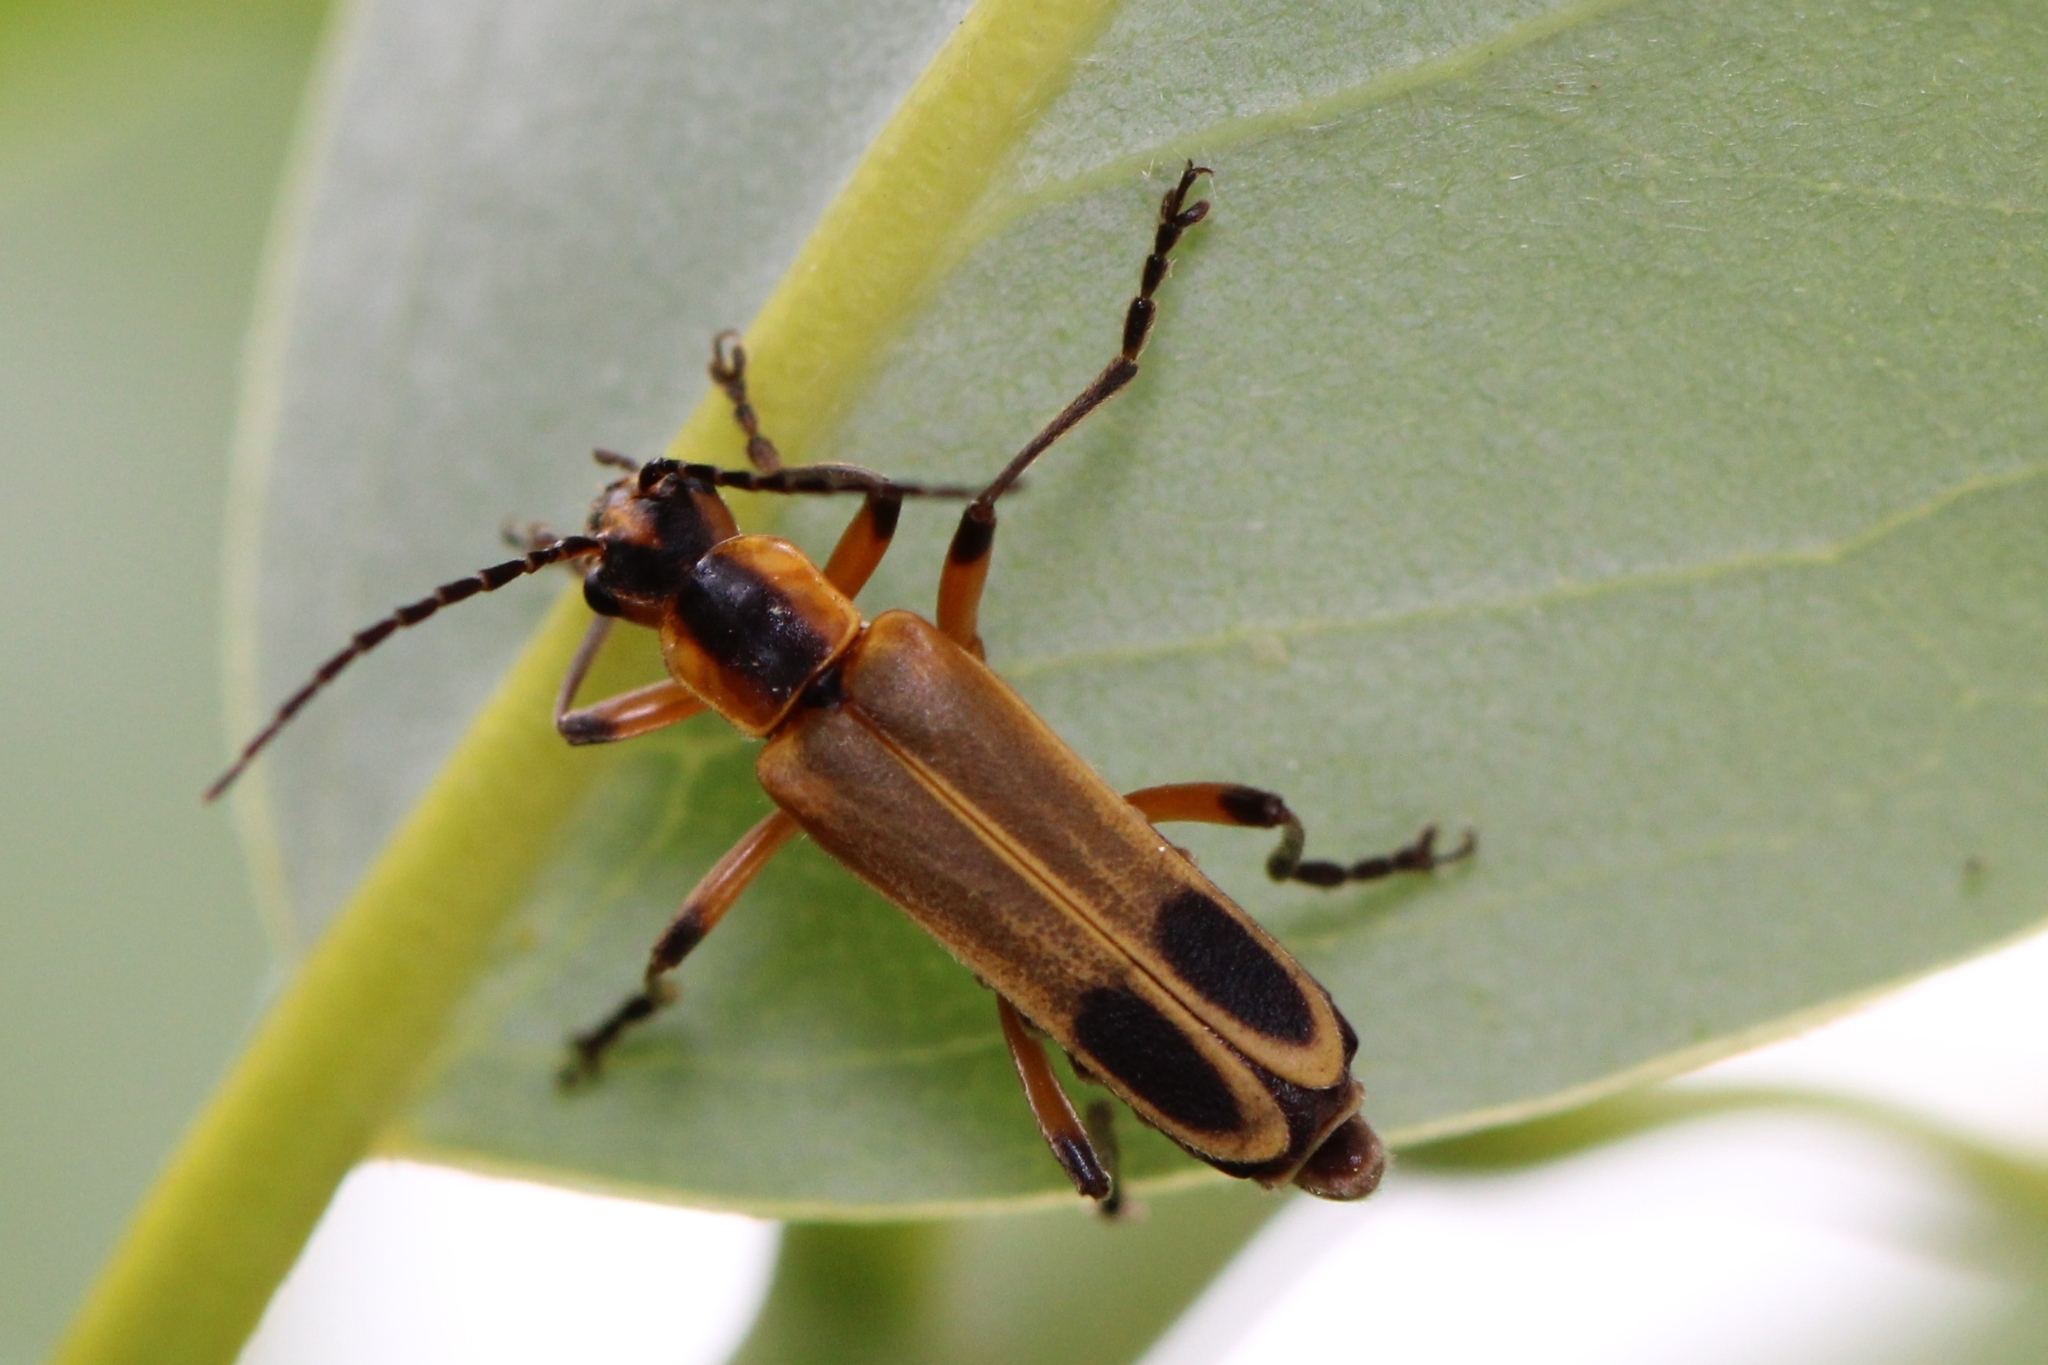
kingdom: Animalia
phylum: Arthropoda
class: Insecta
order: Coleoptera
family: Cantharidae
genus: Chauliognathus
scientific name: Chauliognathus marginatus
